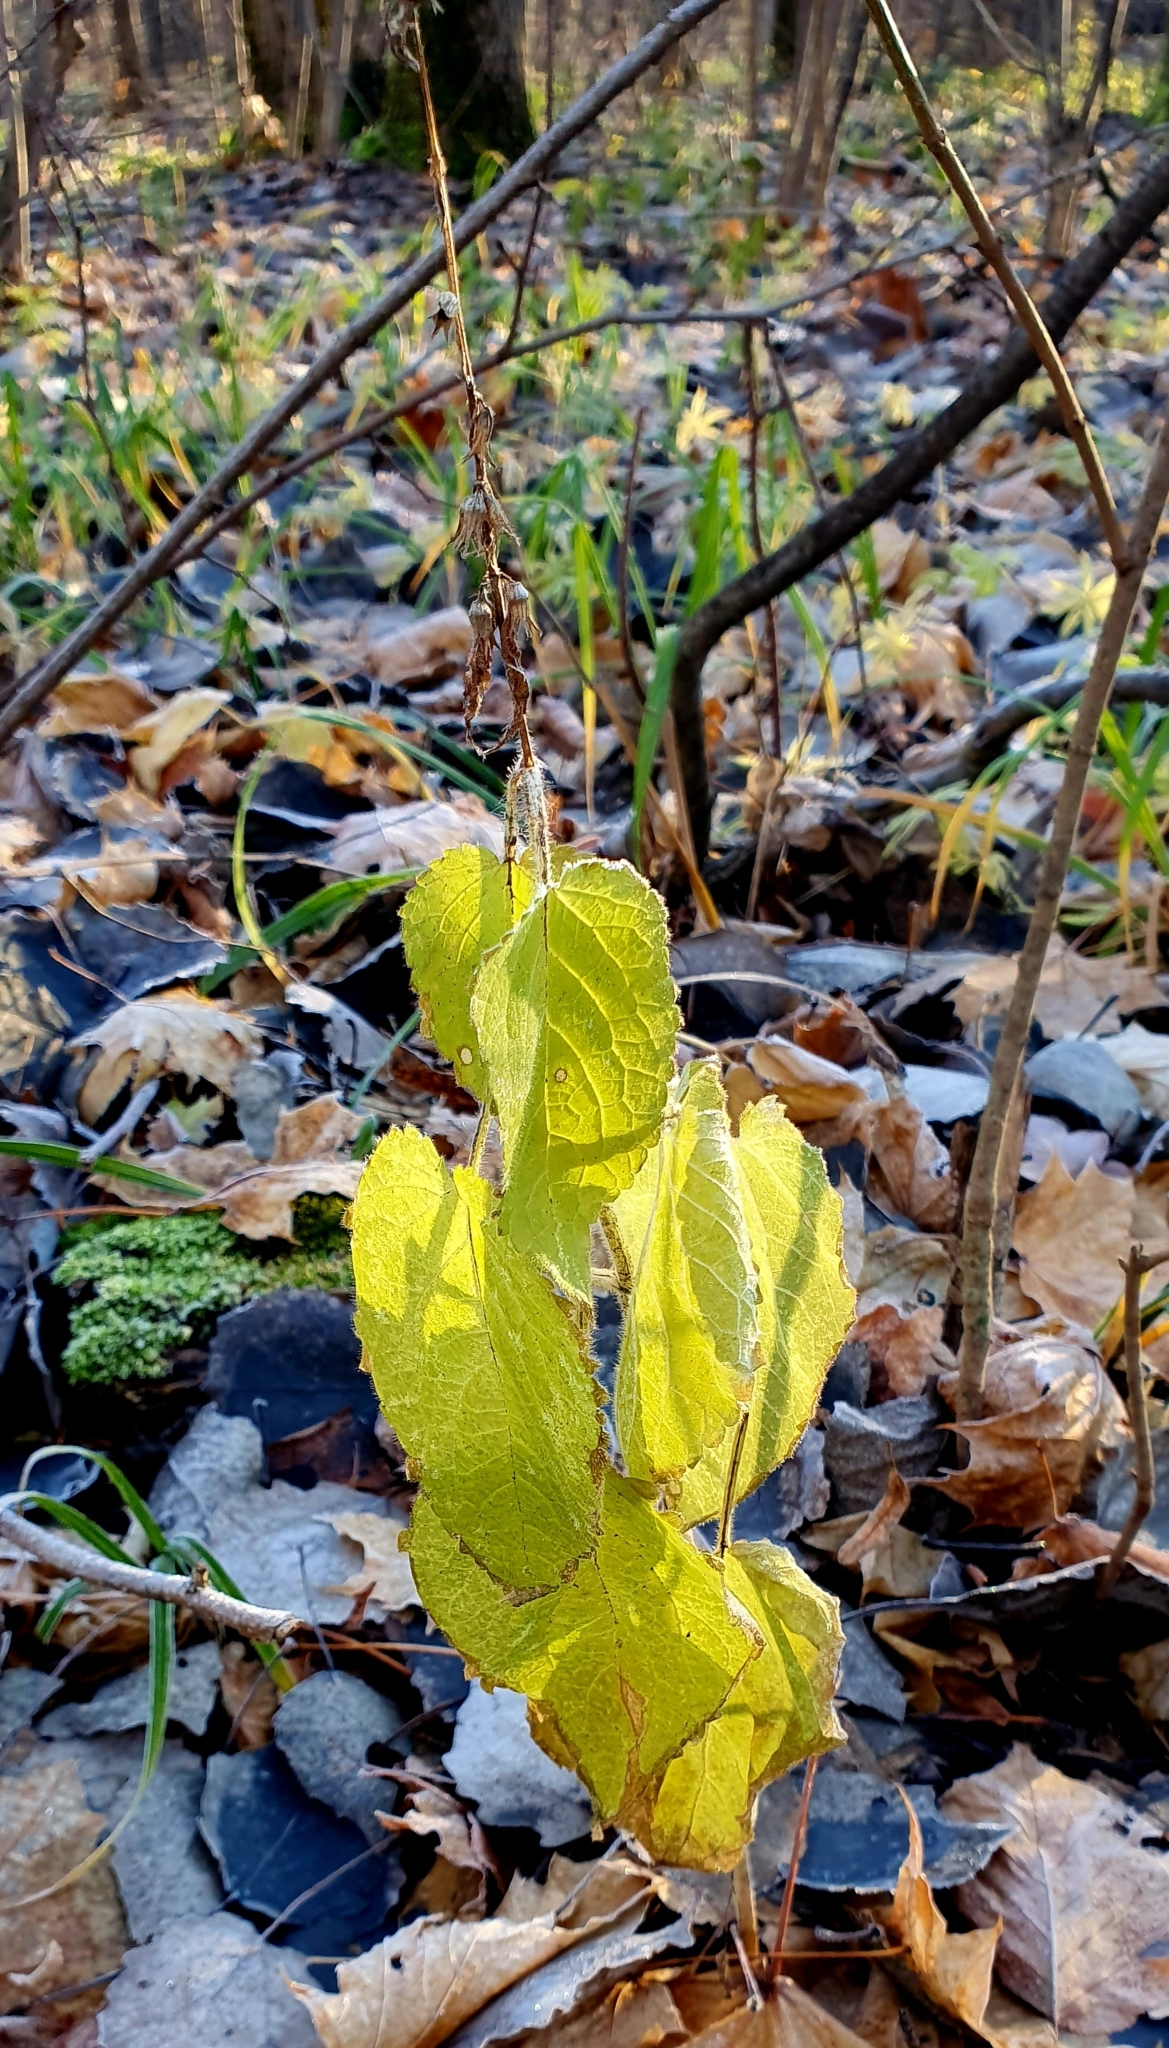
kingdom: Plantae
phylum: Tracheophyta
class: Magnoliopsida
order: Lamiales
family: Lamiaceae
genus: Stachys
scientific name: Stachys sylvatica
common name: Hedge woundwort
